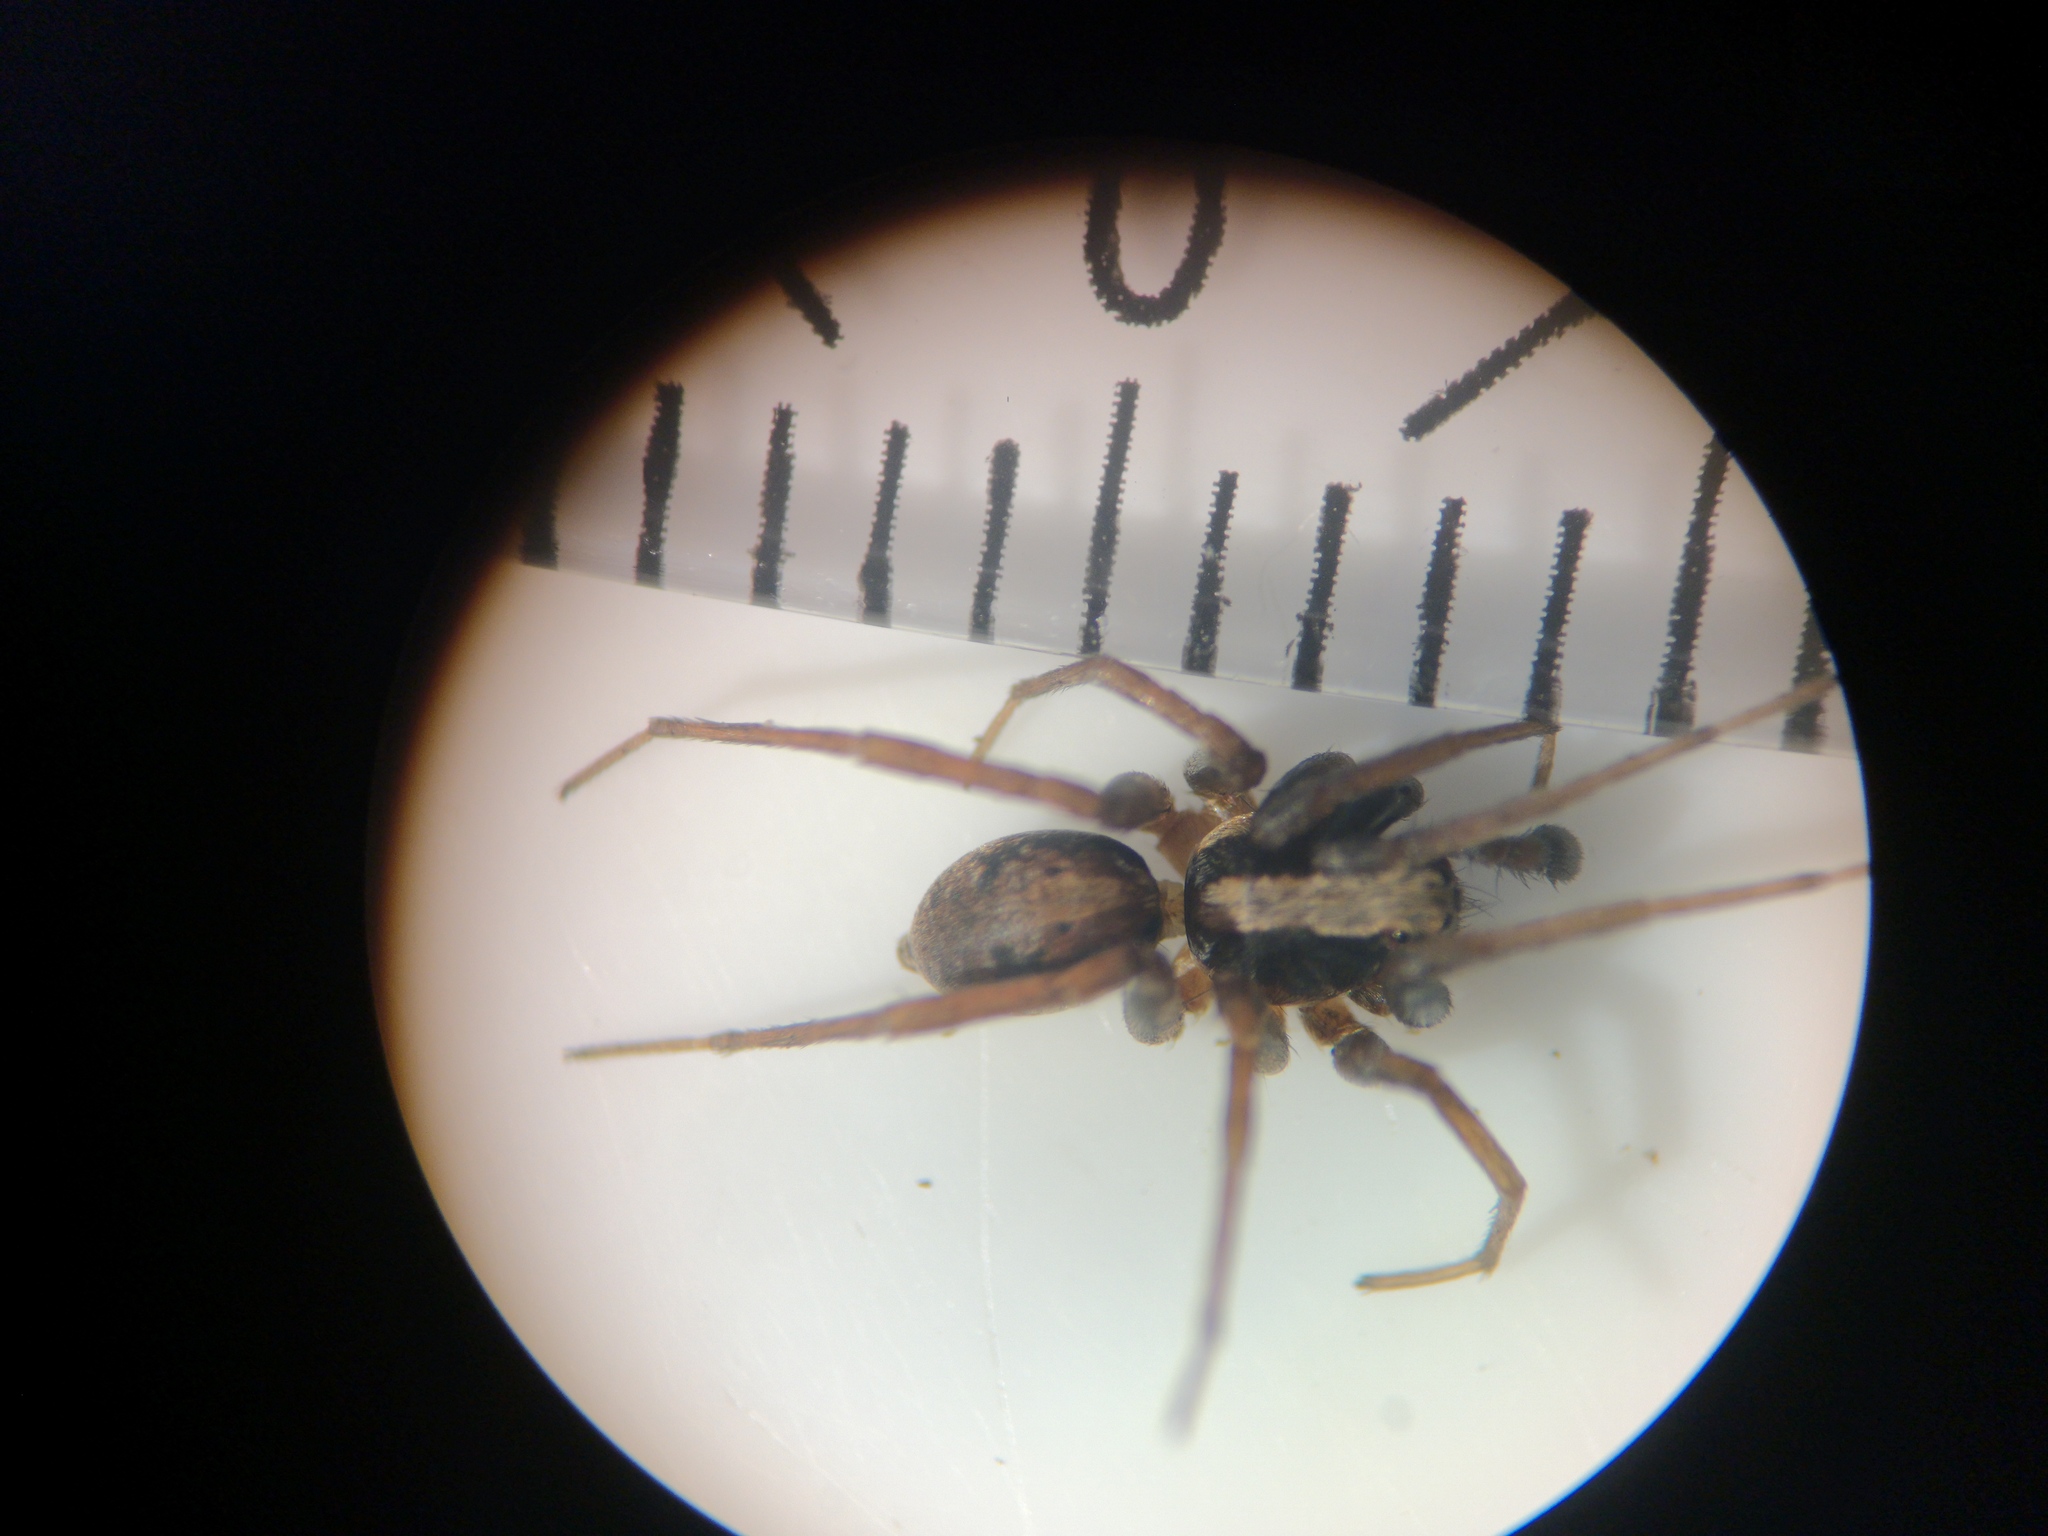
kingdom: Animalia
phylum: Arthropoda
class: Arachnida
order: Araneae
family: Lycosidae
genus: Xerolycosa
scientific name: Xerolycosa nemoralis
